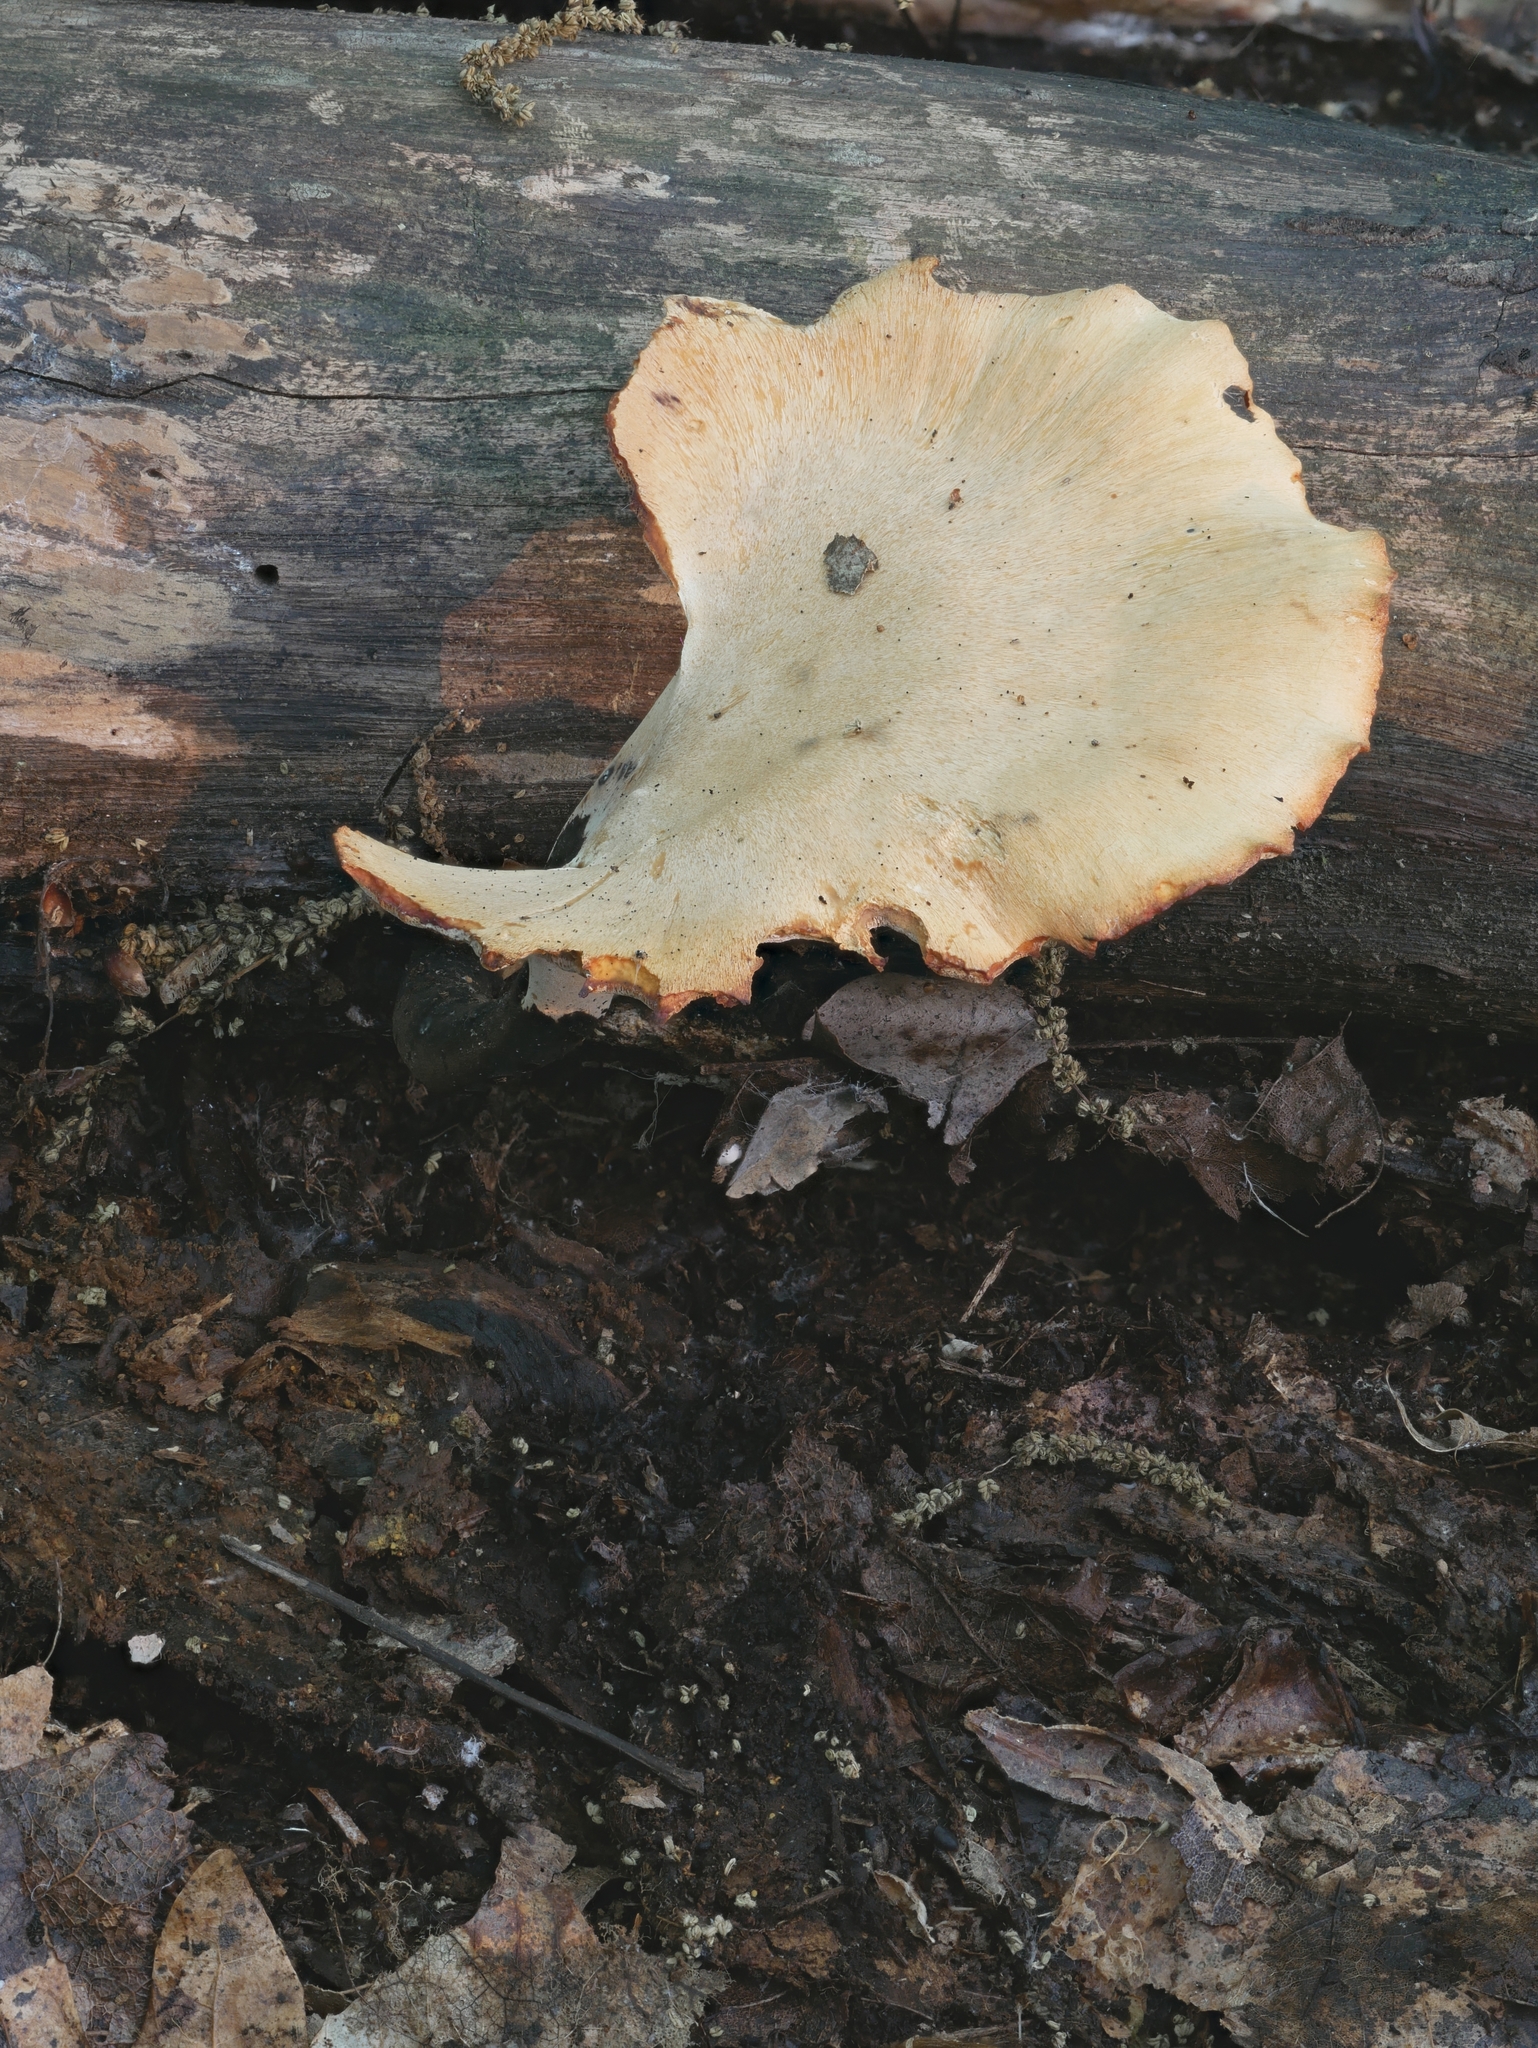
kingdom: Fungi
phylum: Basidiomycota
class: Agaricomycetes
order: Polyporales
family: Polyporaceae
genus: Cerioporus
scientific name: Cerioporus varius
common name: Elegant polypore
